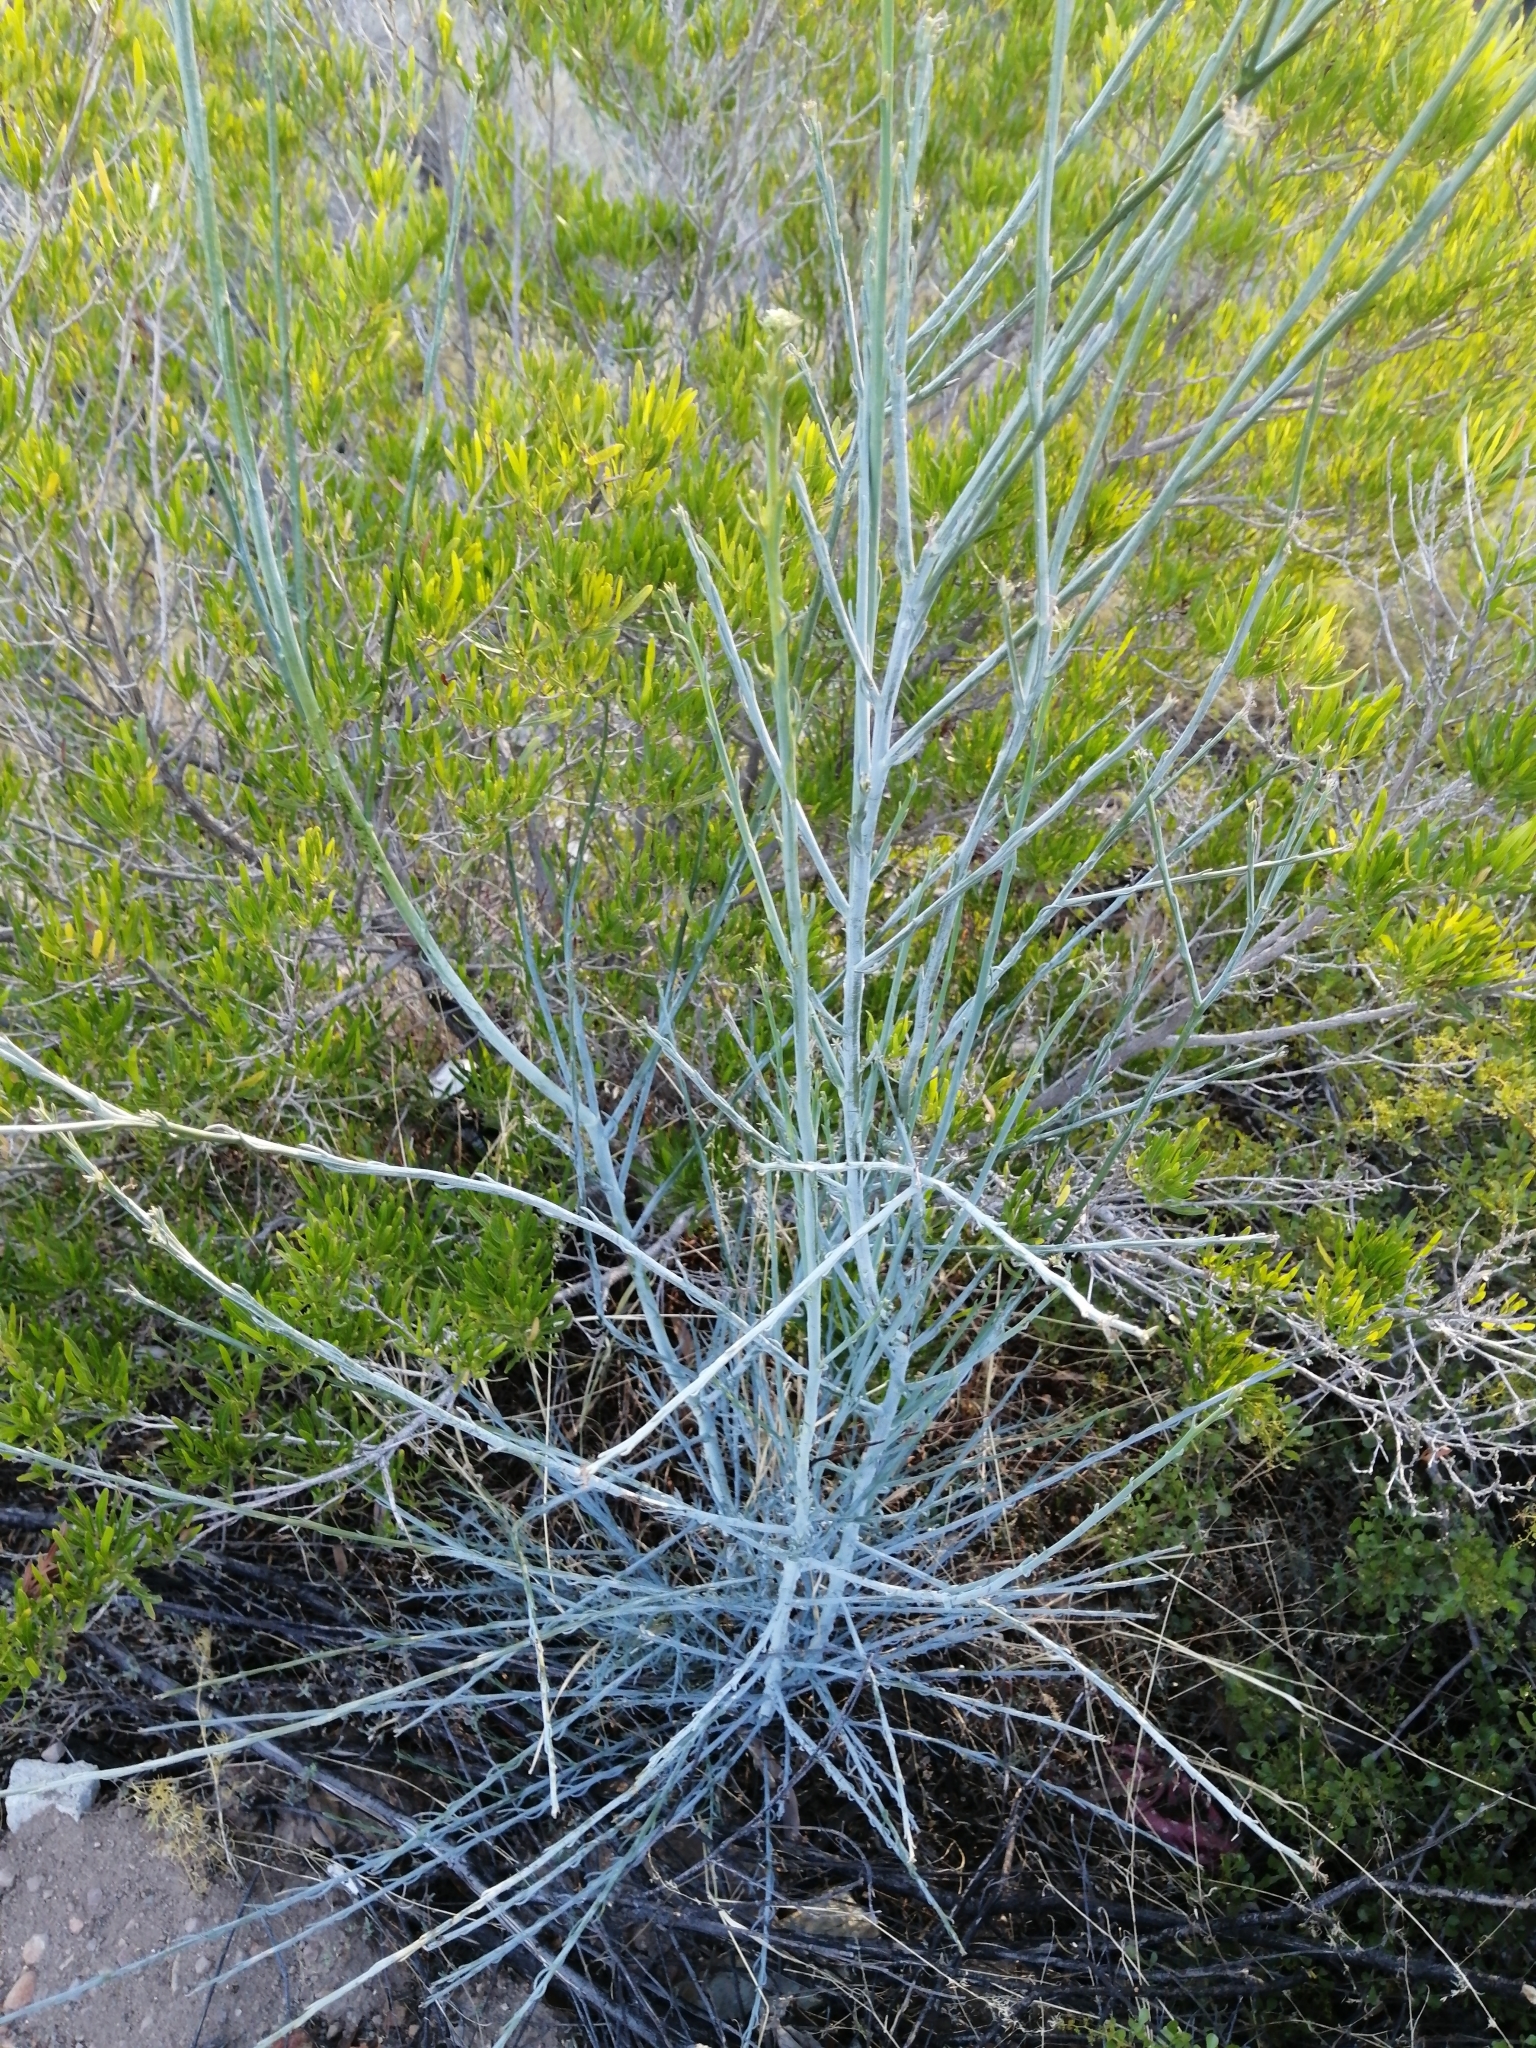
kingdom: Plantae
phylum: Tracheophyta
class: Magnoliopsida
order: Santalales
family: Thesiaceae
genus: Thesium
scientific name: Thesium strictum
